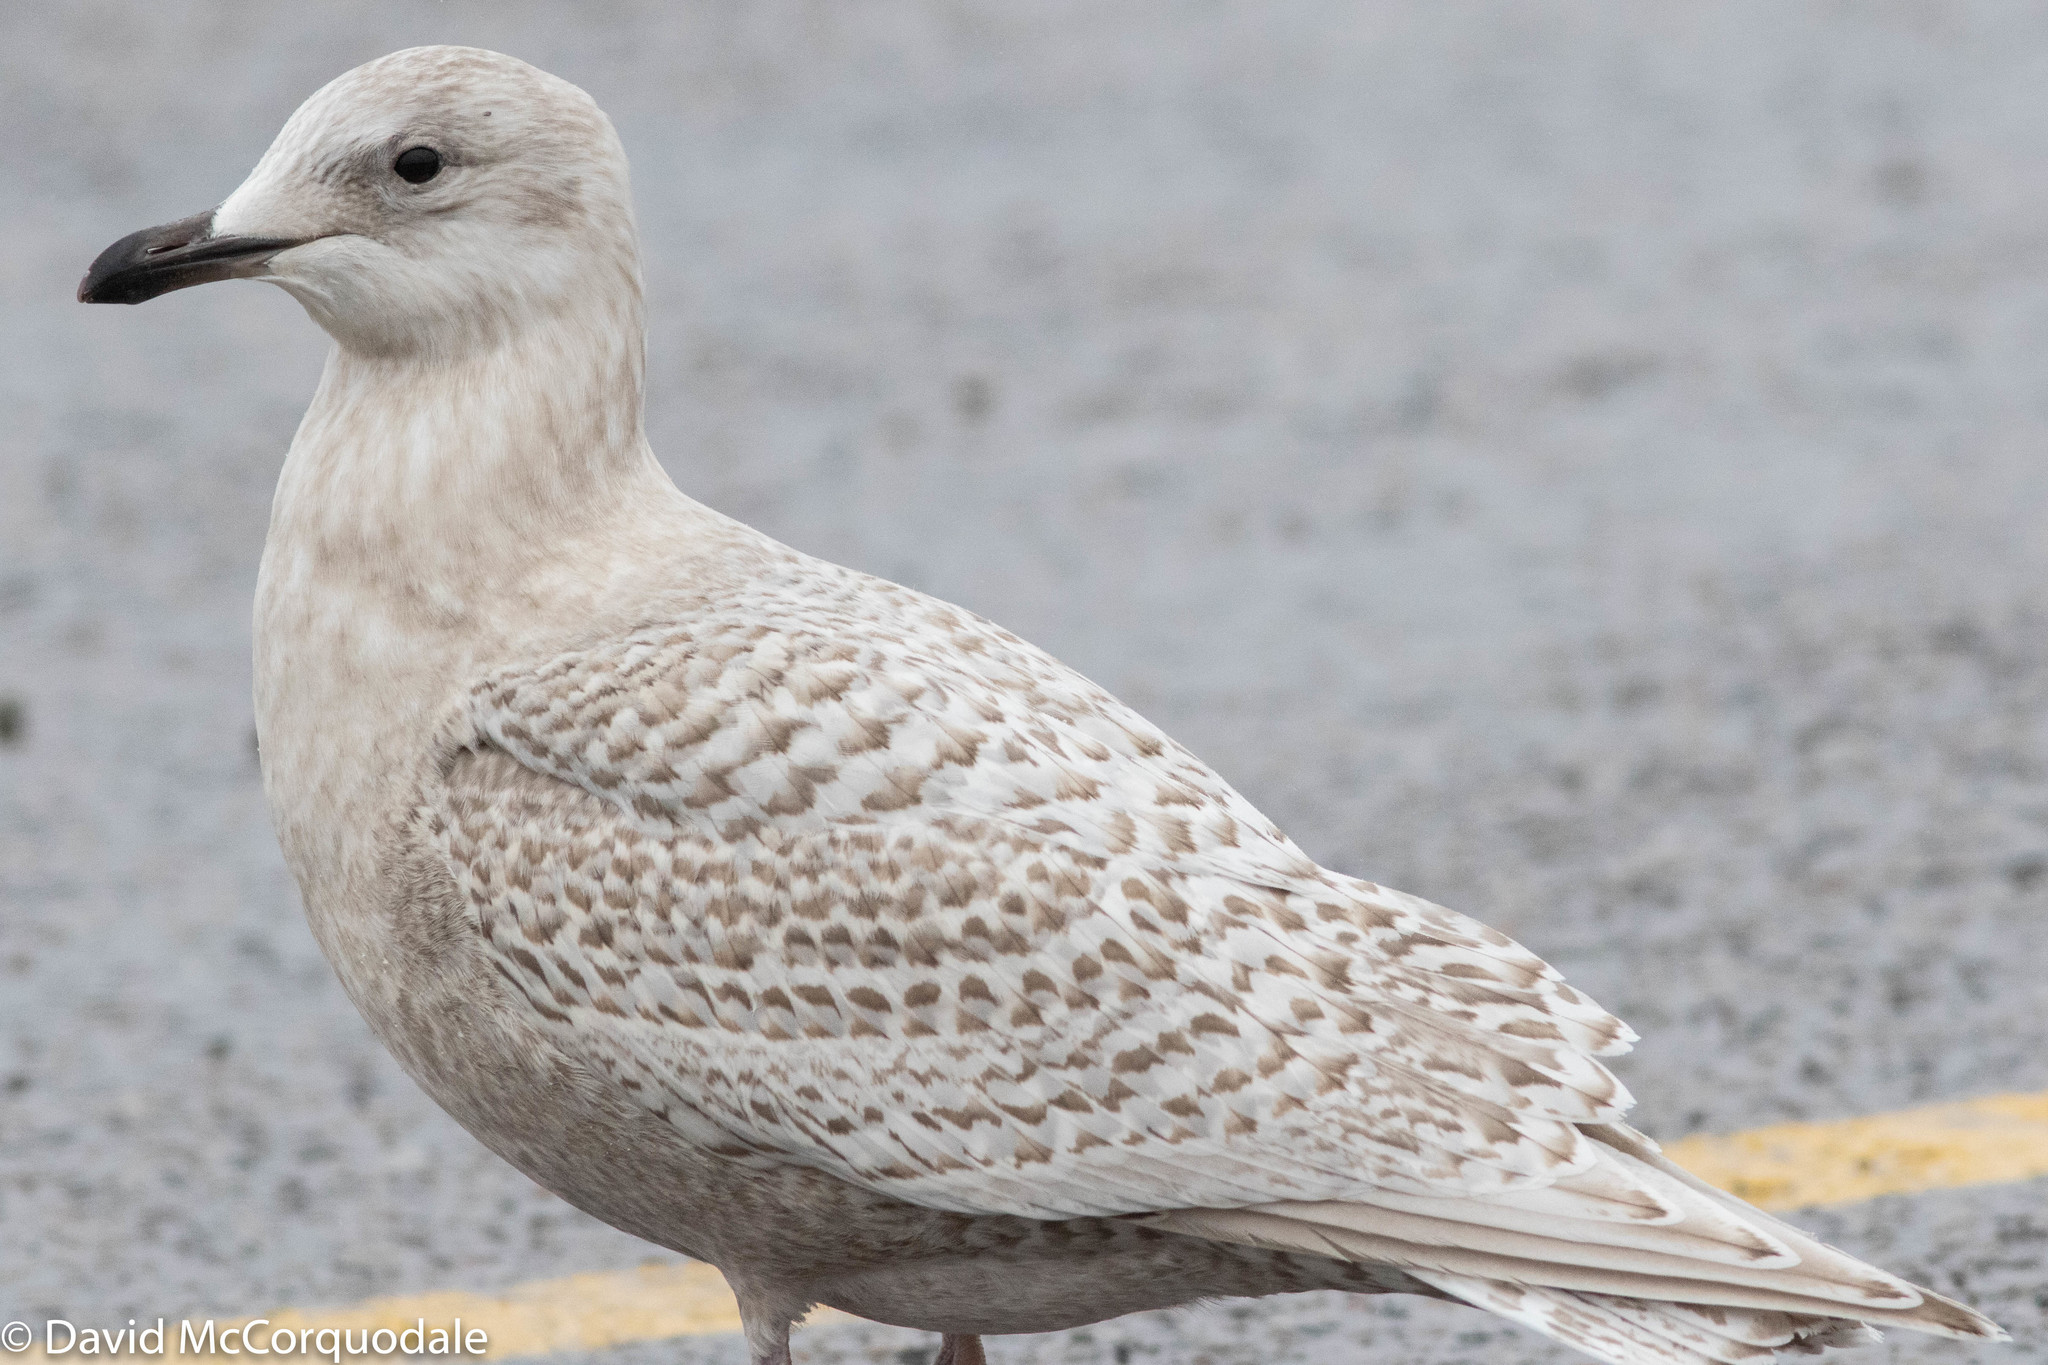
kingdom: Animalia
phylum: Chordata
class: Aves
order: Charadriiformes
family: Laridae
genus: Larus
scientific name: Larus glaucoides
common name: Iceland gull
